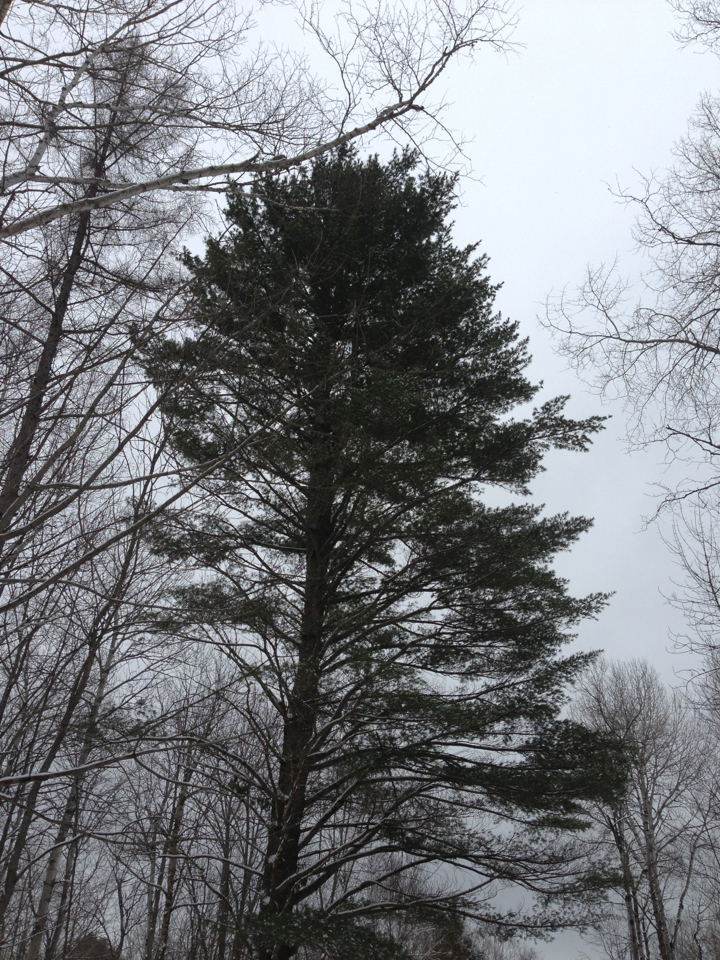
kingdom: Plantae
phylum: Tracheophyta
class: Pinopsida
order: Pinales
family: Pinaceae
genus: Pinus
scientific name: Pinus strobus
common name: Weymouth pine
